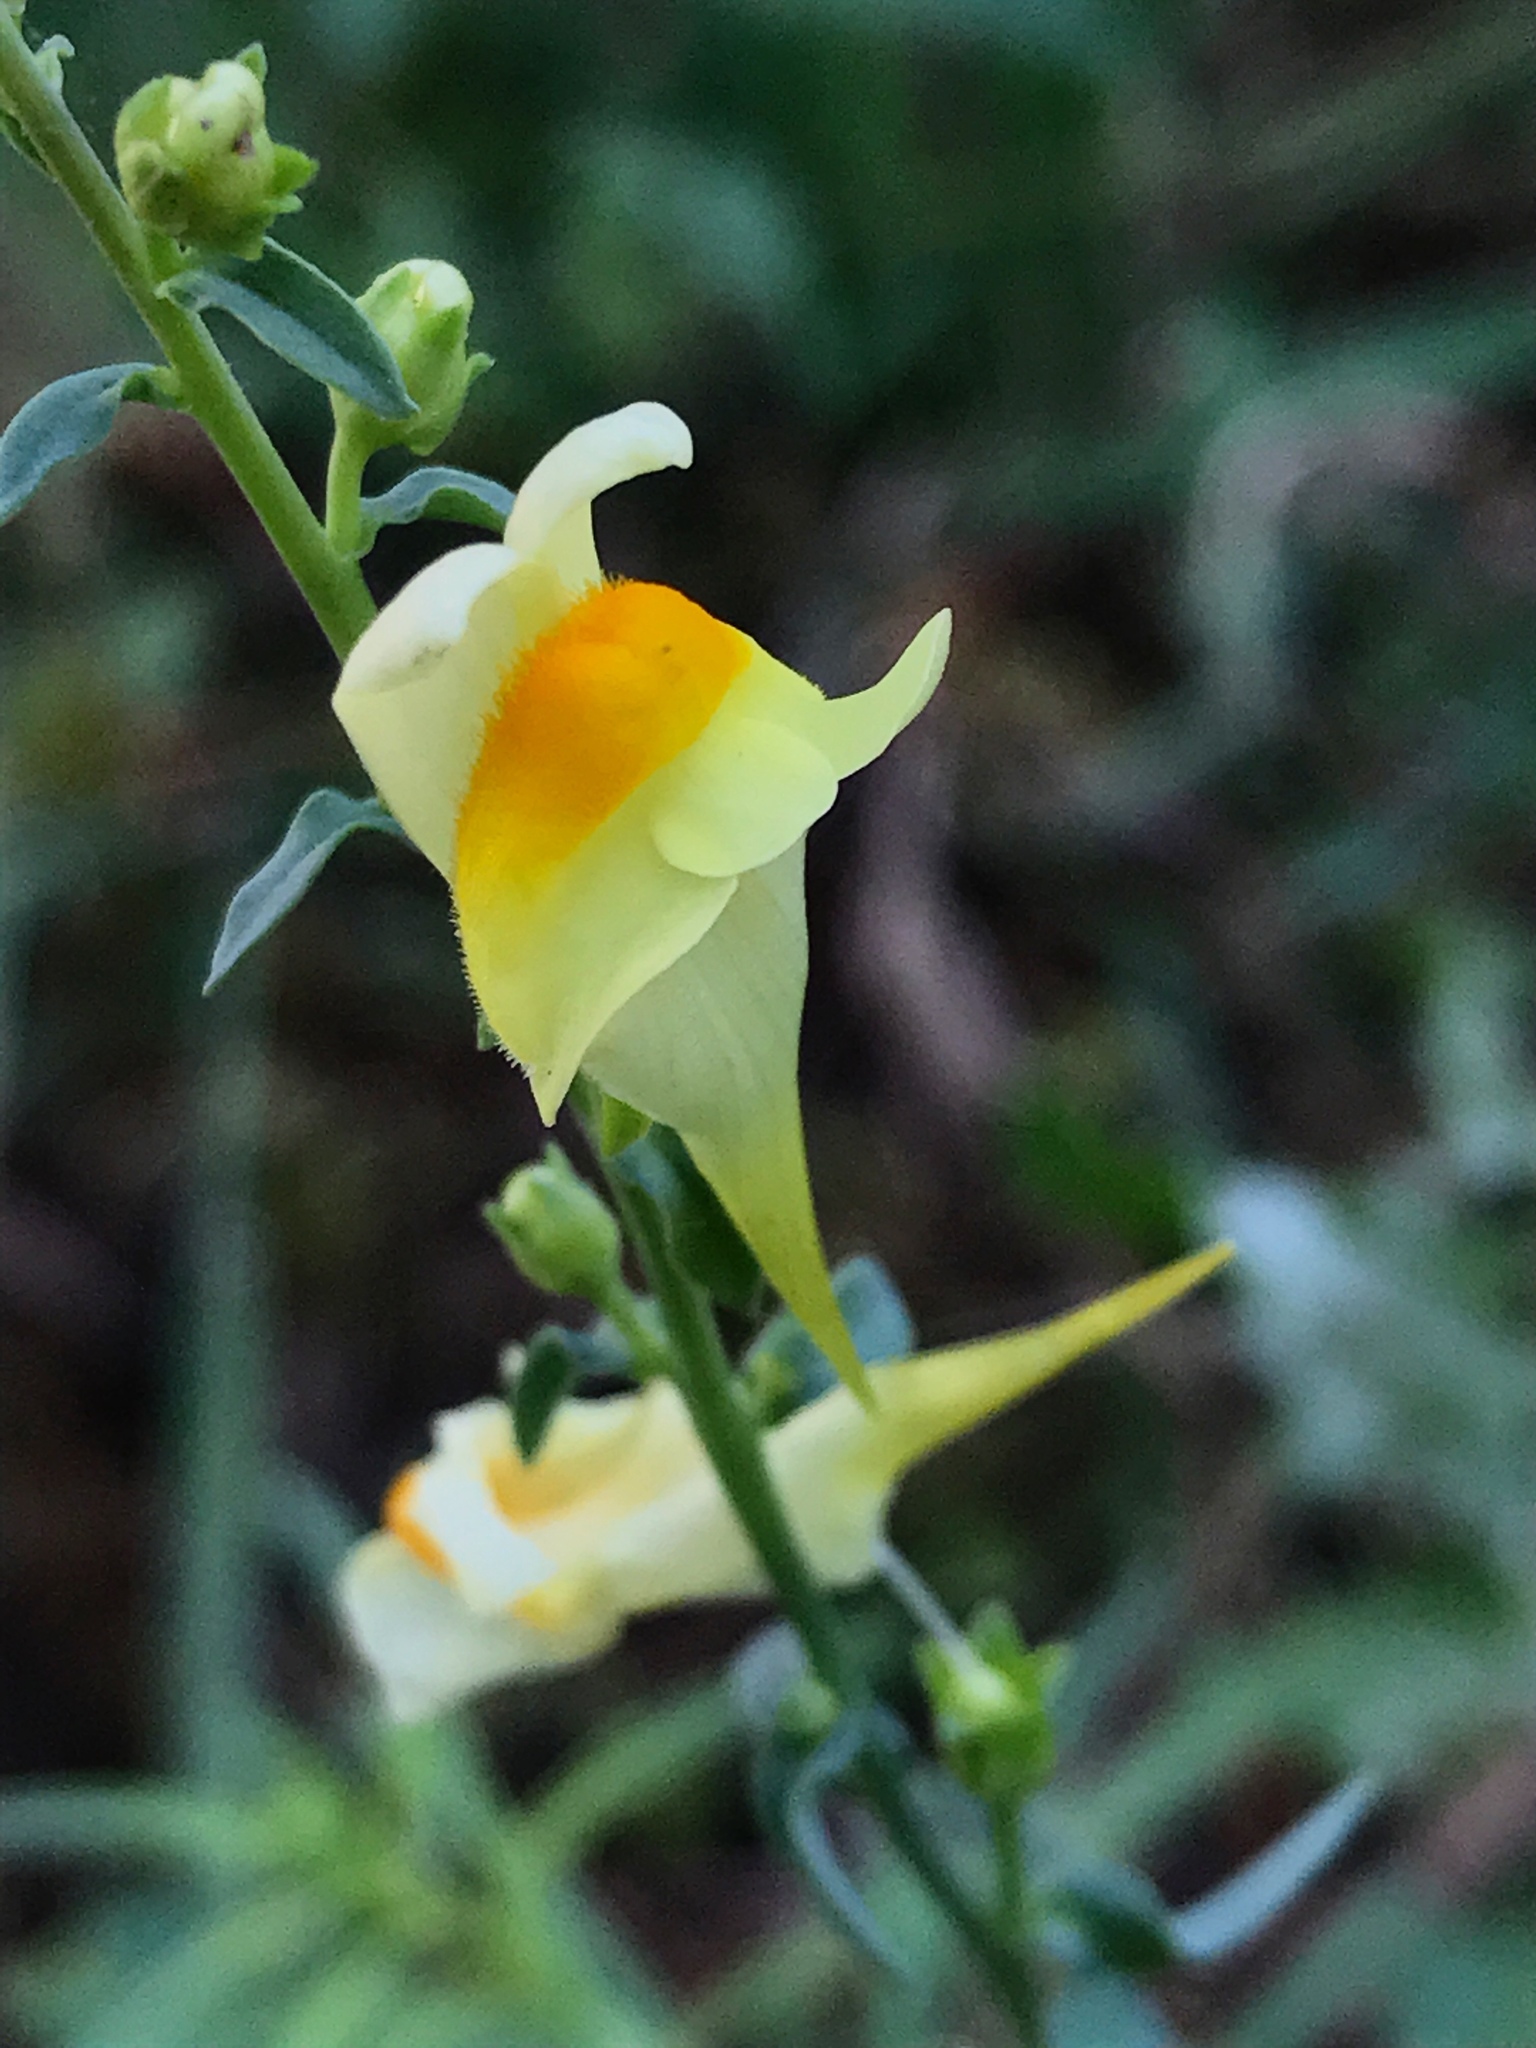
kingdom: Plantae
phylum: Tracheophyta
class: Magnoliopsida
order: Lamiales
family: Plantaginaceae
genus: Linaria
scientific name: Linaria vulgaris
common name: Butter and eggs
